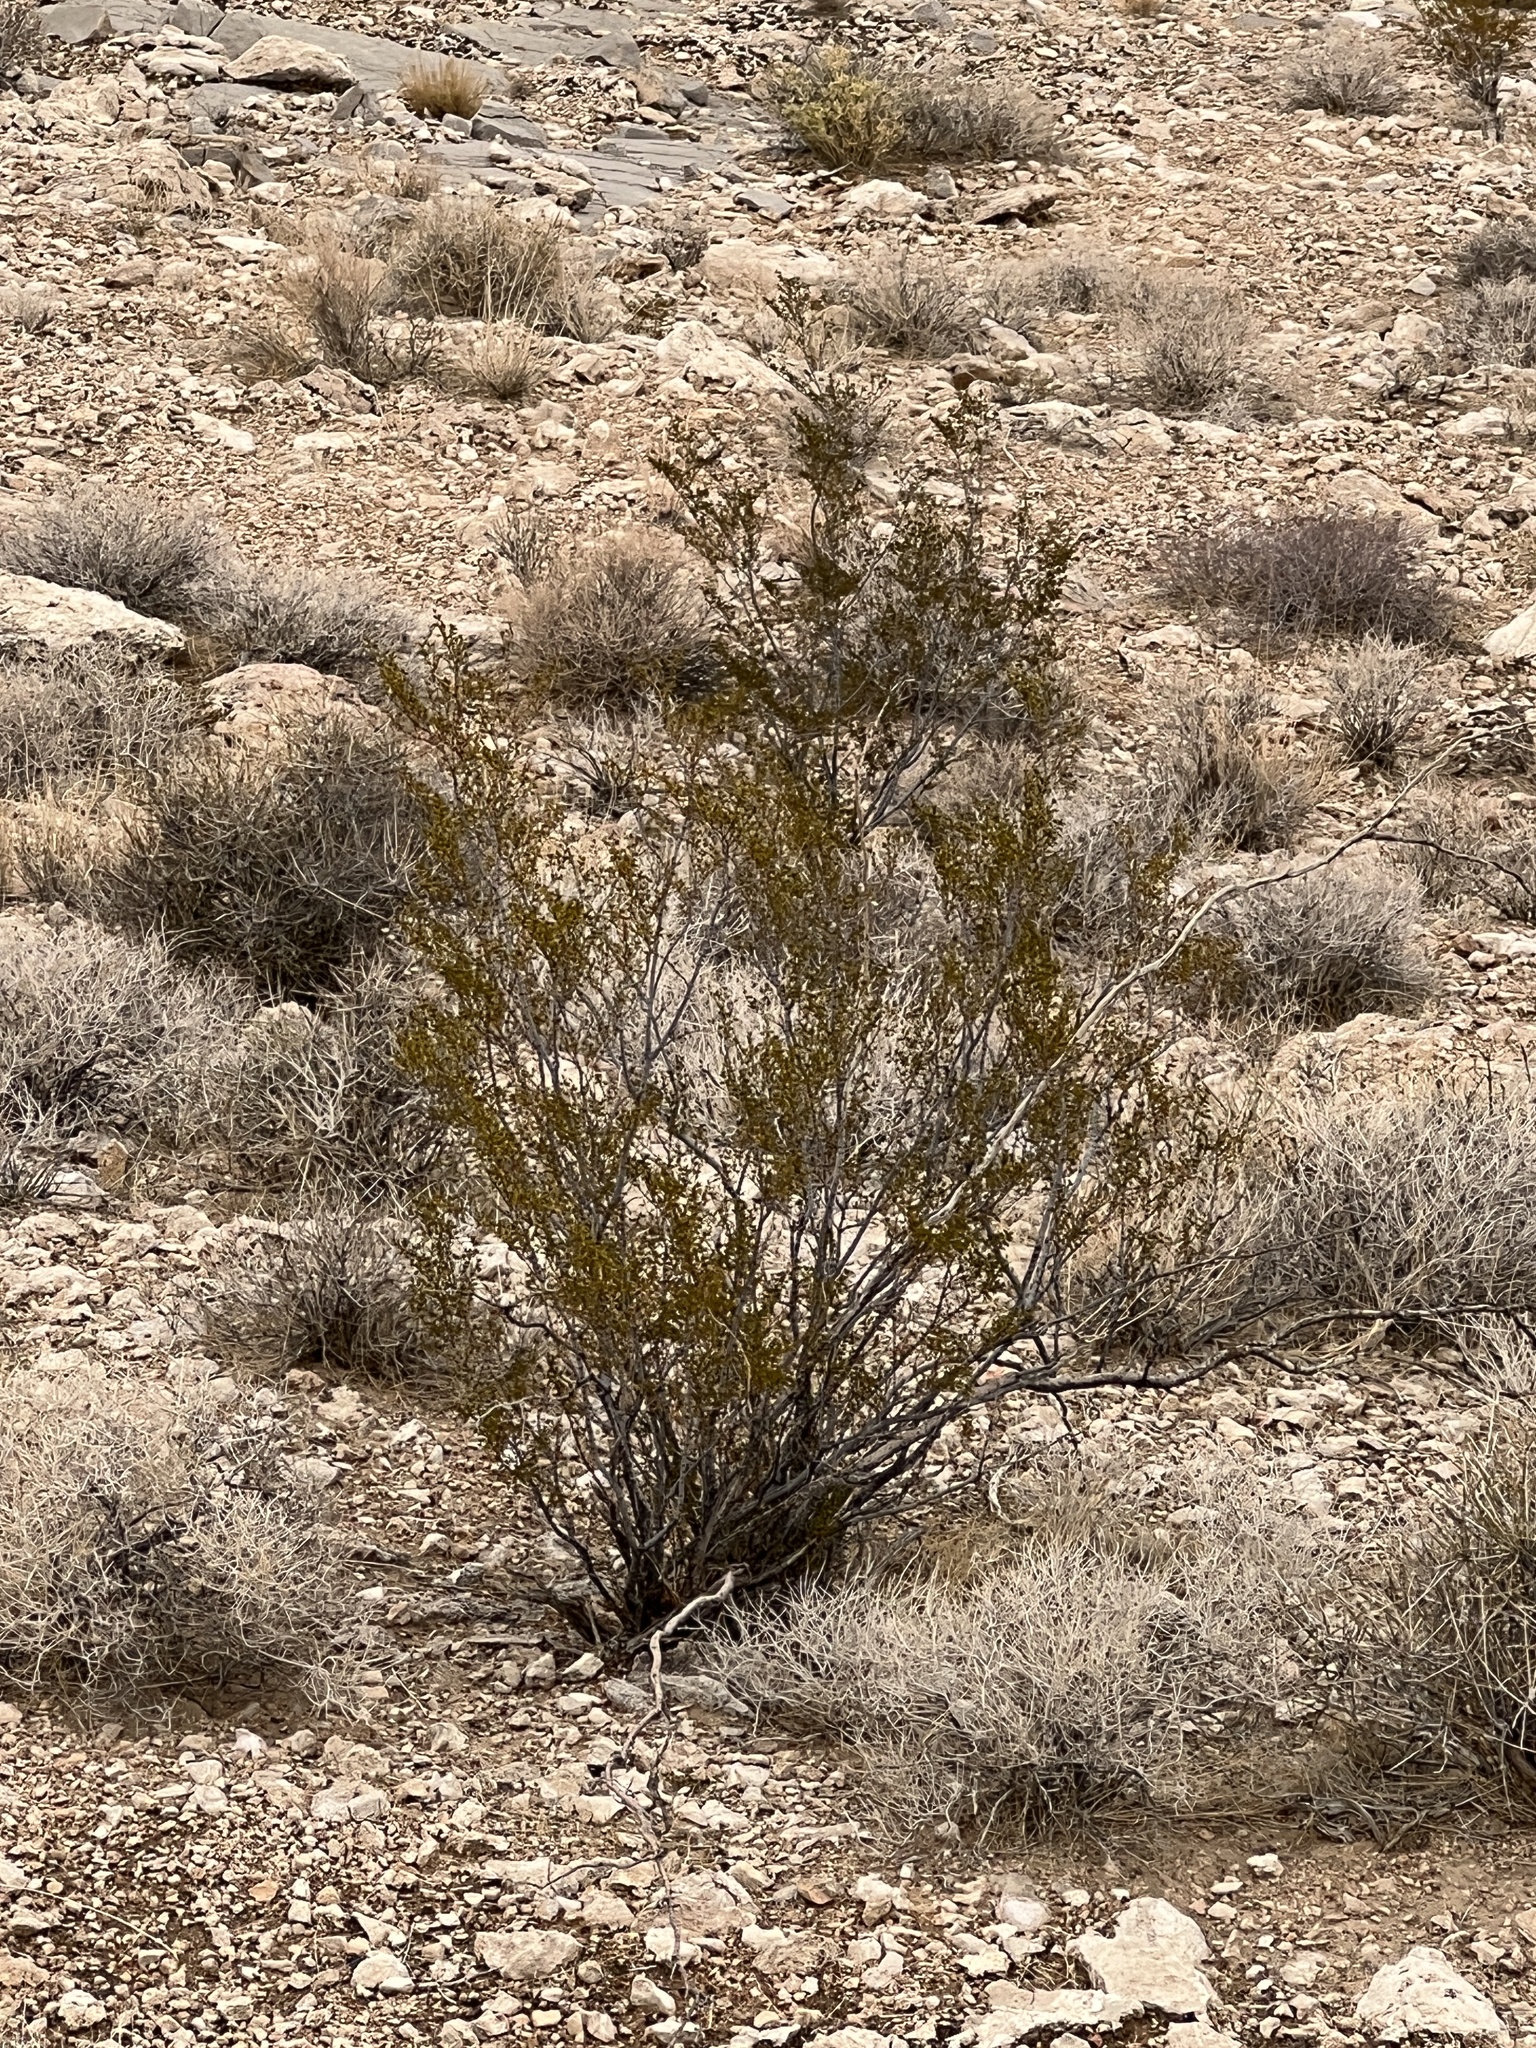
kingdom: Plantae
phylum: Tracheophyta
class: Magnoliopsida
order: Zygophyllales
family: Zygophyllaceae
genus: Larrea
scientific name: Larrea tridentata
